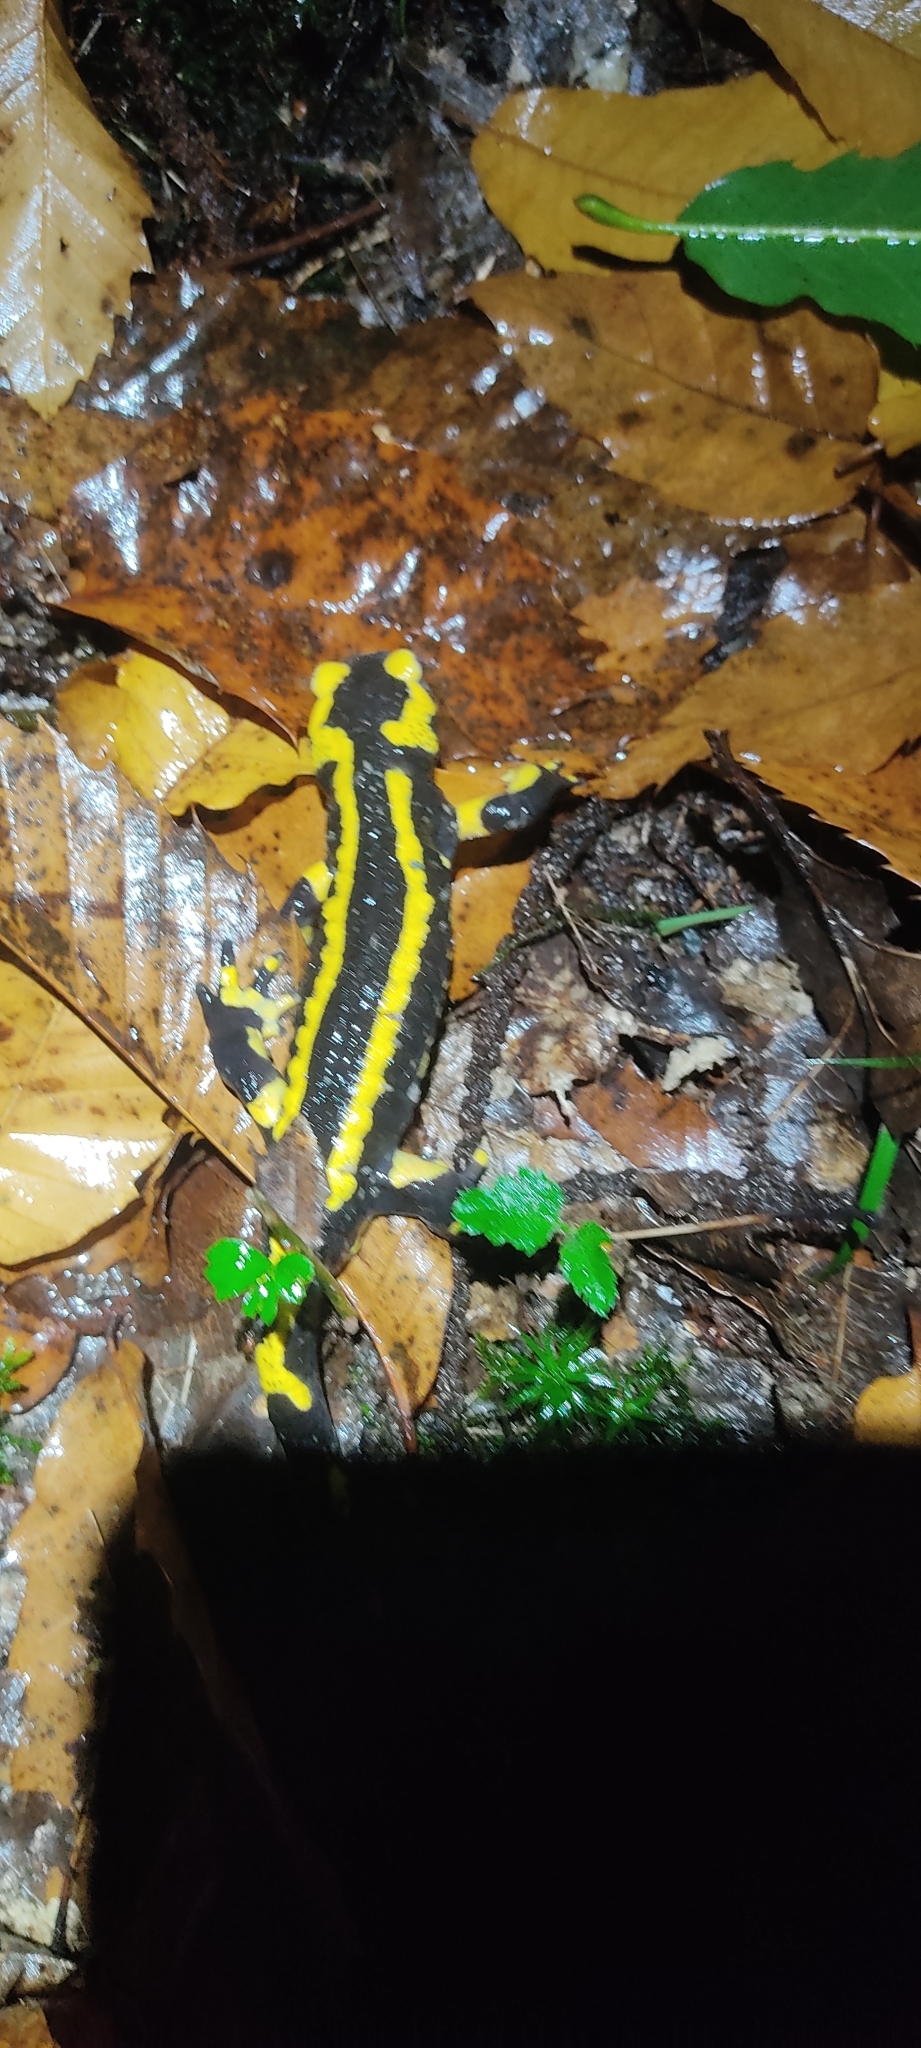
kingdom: Animalia
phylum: Chordata
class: Amphibia
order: Caudata
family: Salamandridae
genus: Salamandra
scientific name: Salamandra salamandra
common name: Fire salamander
